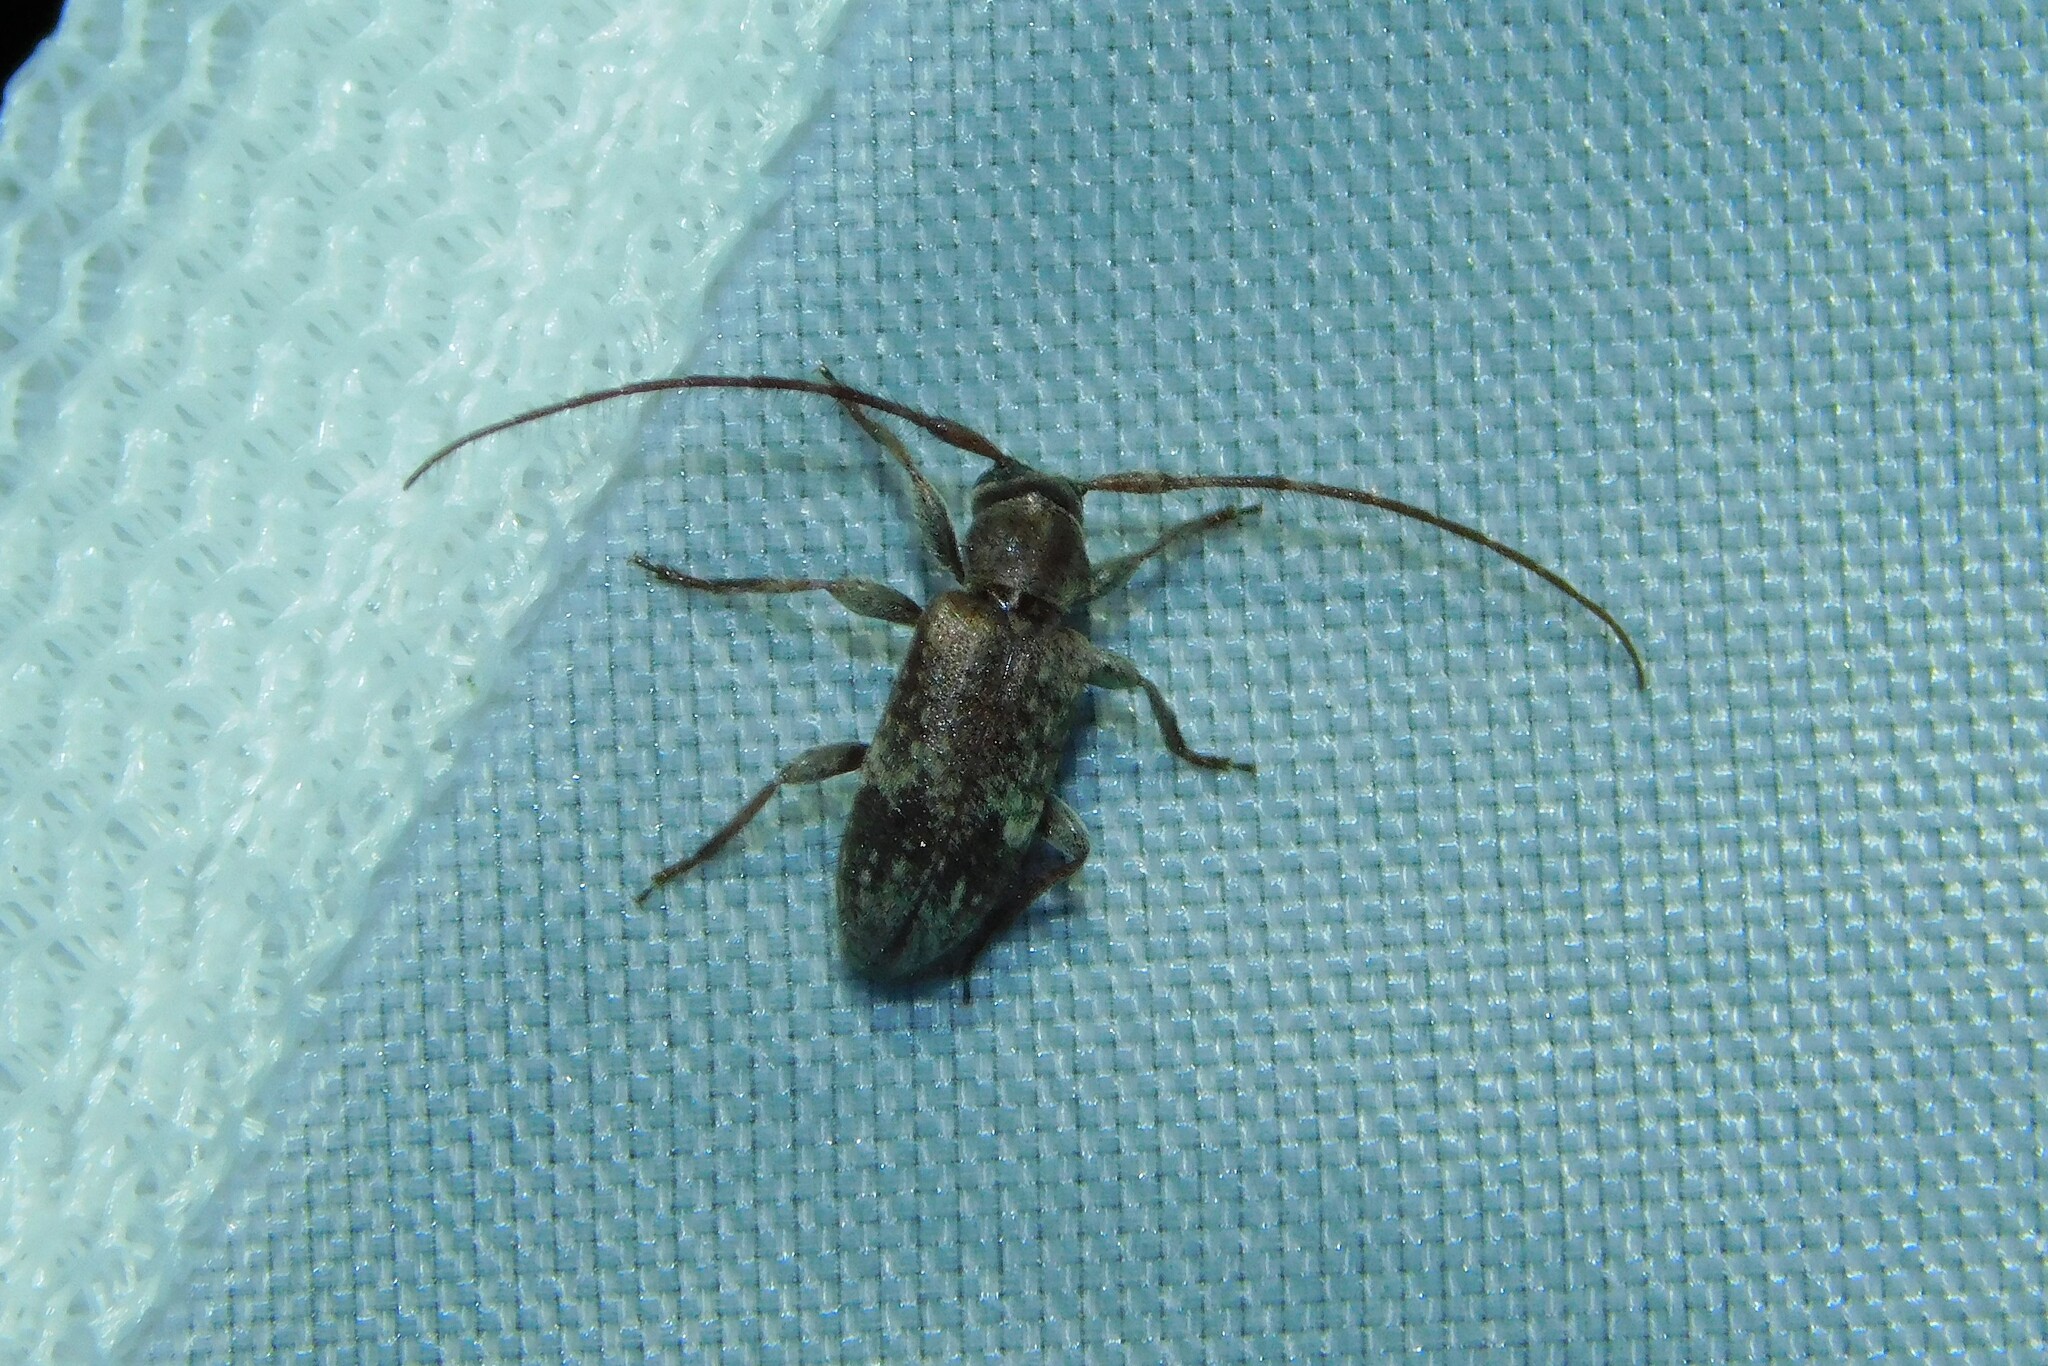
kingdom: Animalia
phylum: Arthropoda
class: Insecta
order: Coleoptera
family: Cerambycidae
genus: Exocentrus
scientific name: Exocentrus adspersus
